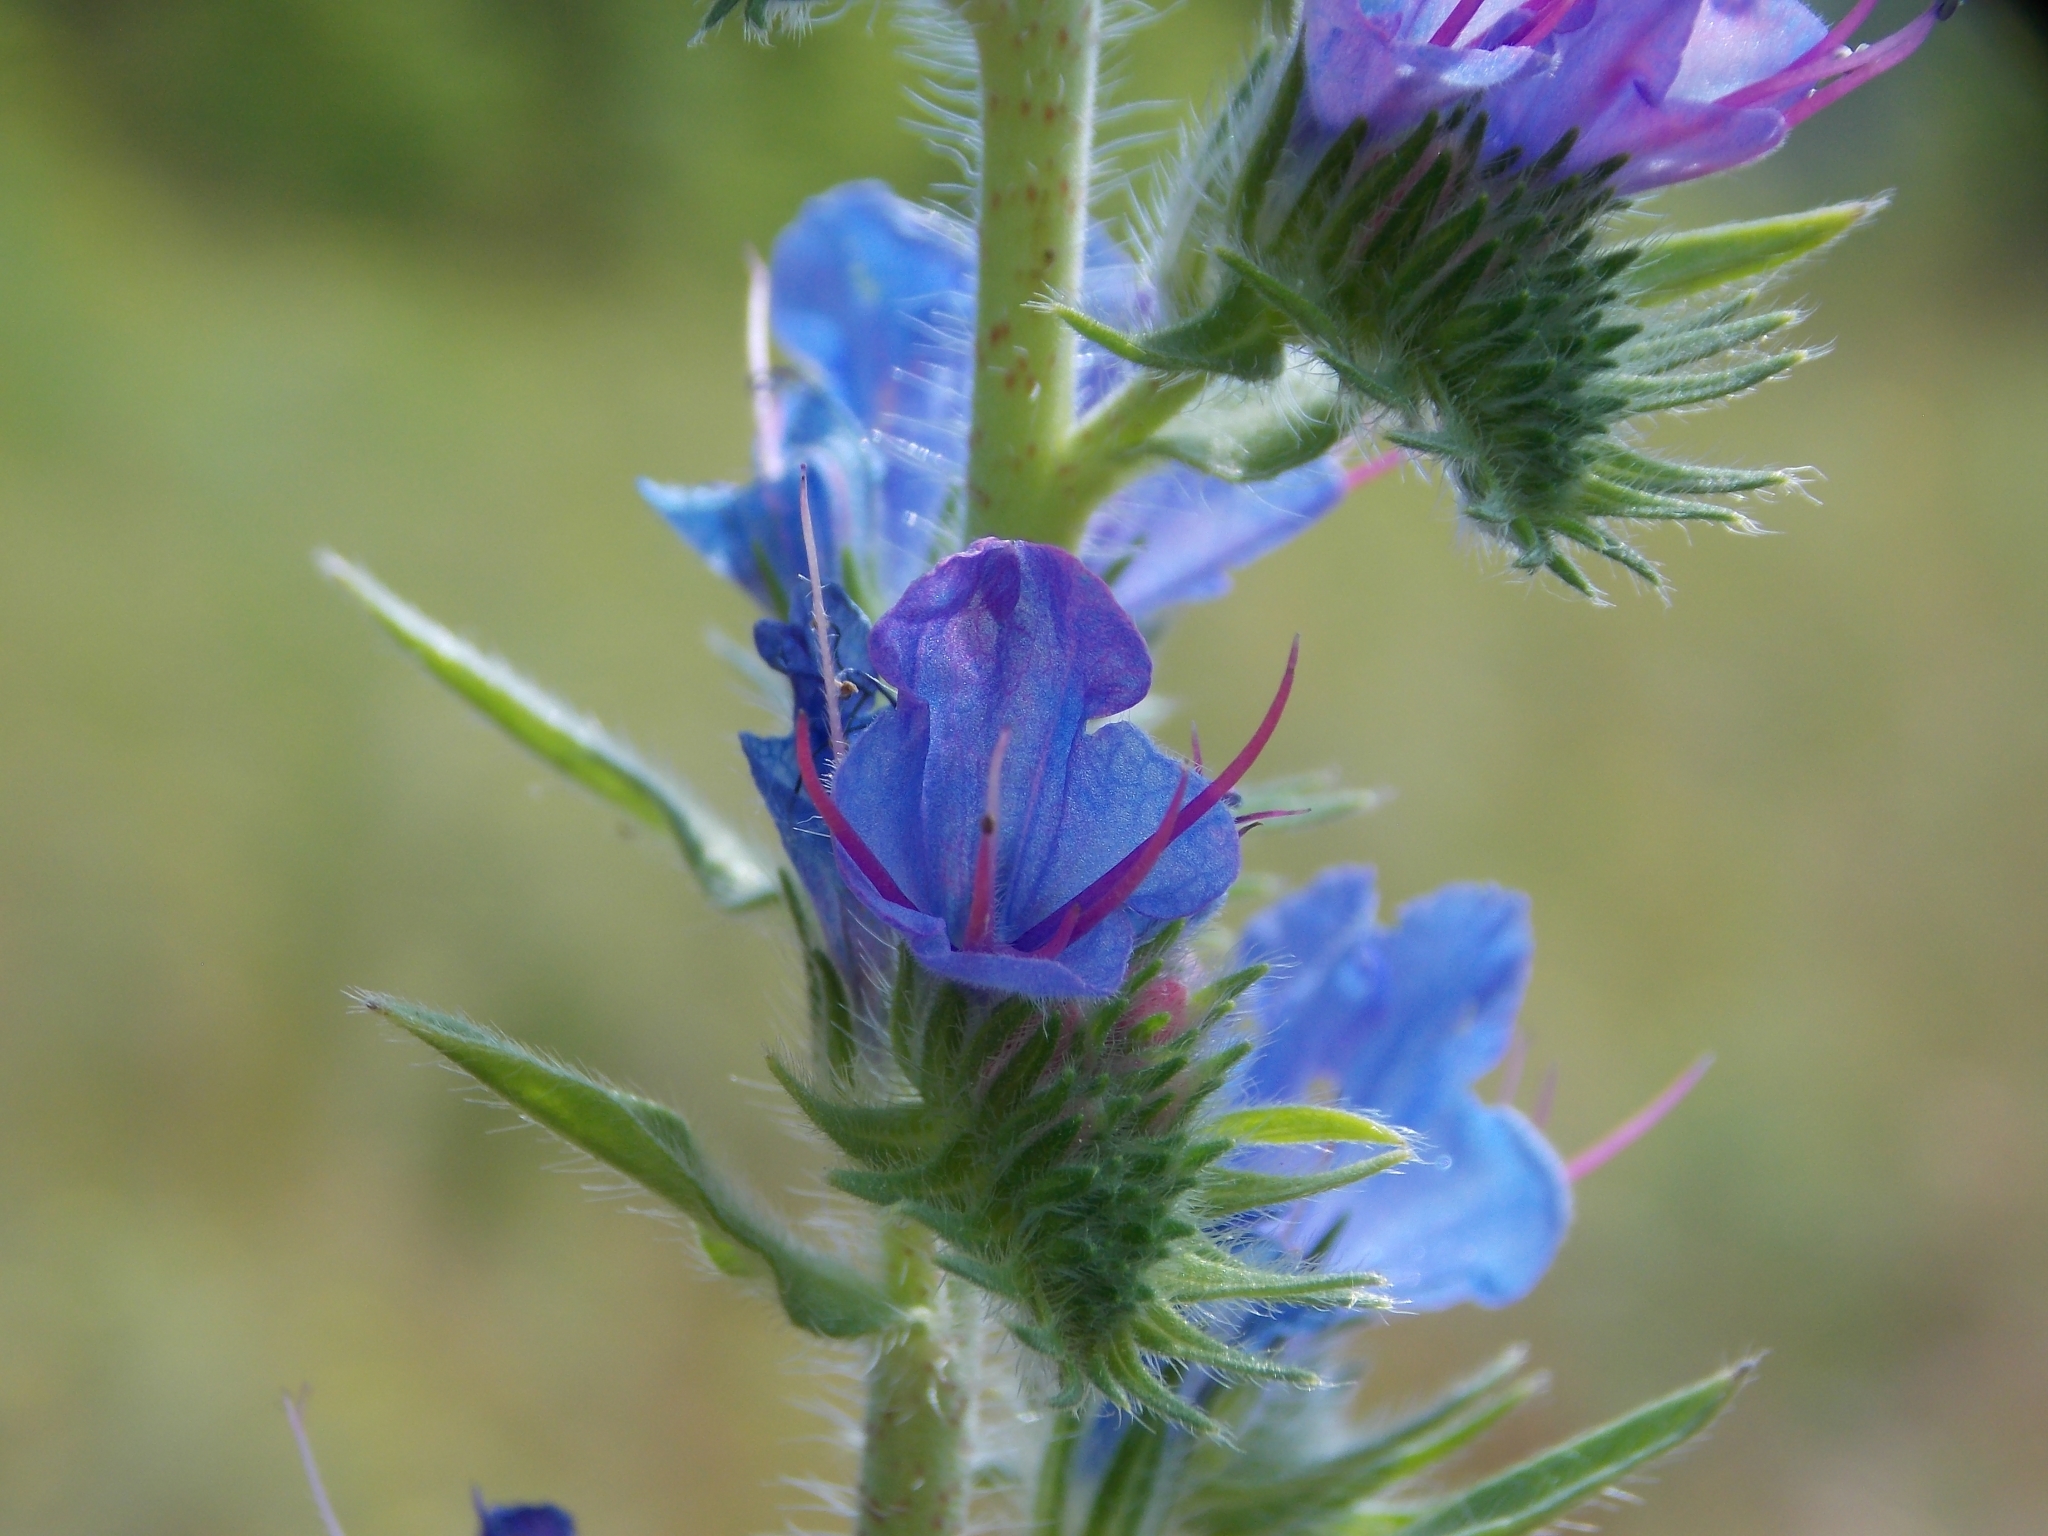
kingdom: Plantae
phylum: Tracheophyta
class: Magnoliopsida
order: Boraginales
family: Boraginaceae
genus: Echium
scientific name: Echium vulgare
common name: Common viper's bugloss
